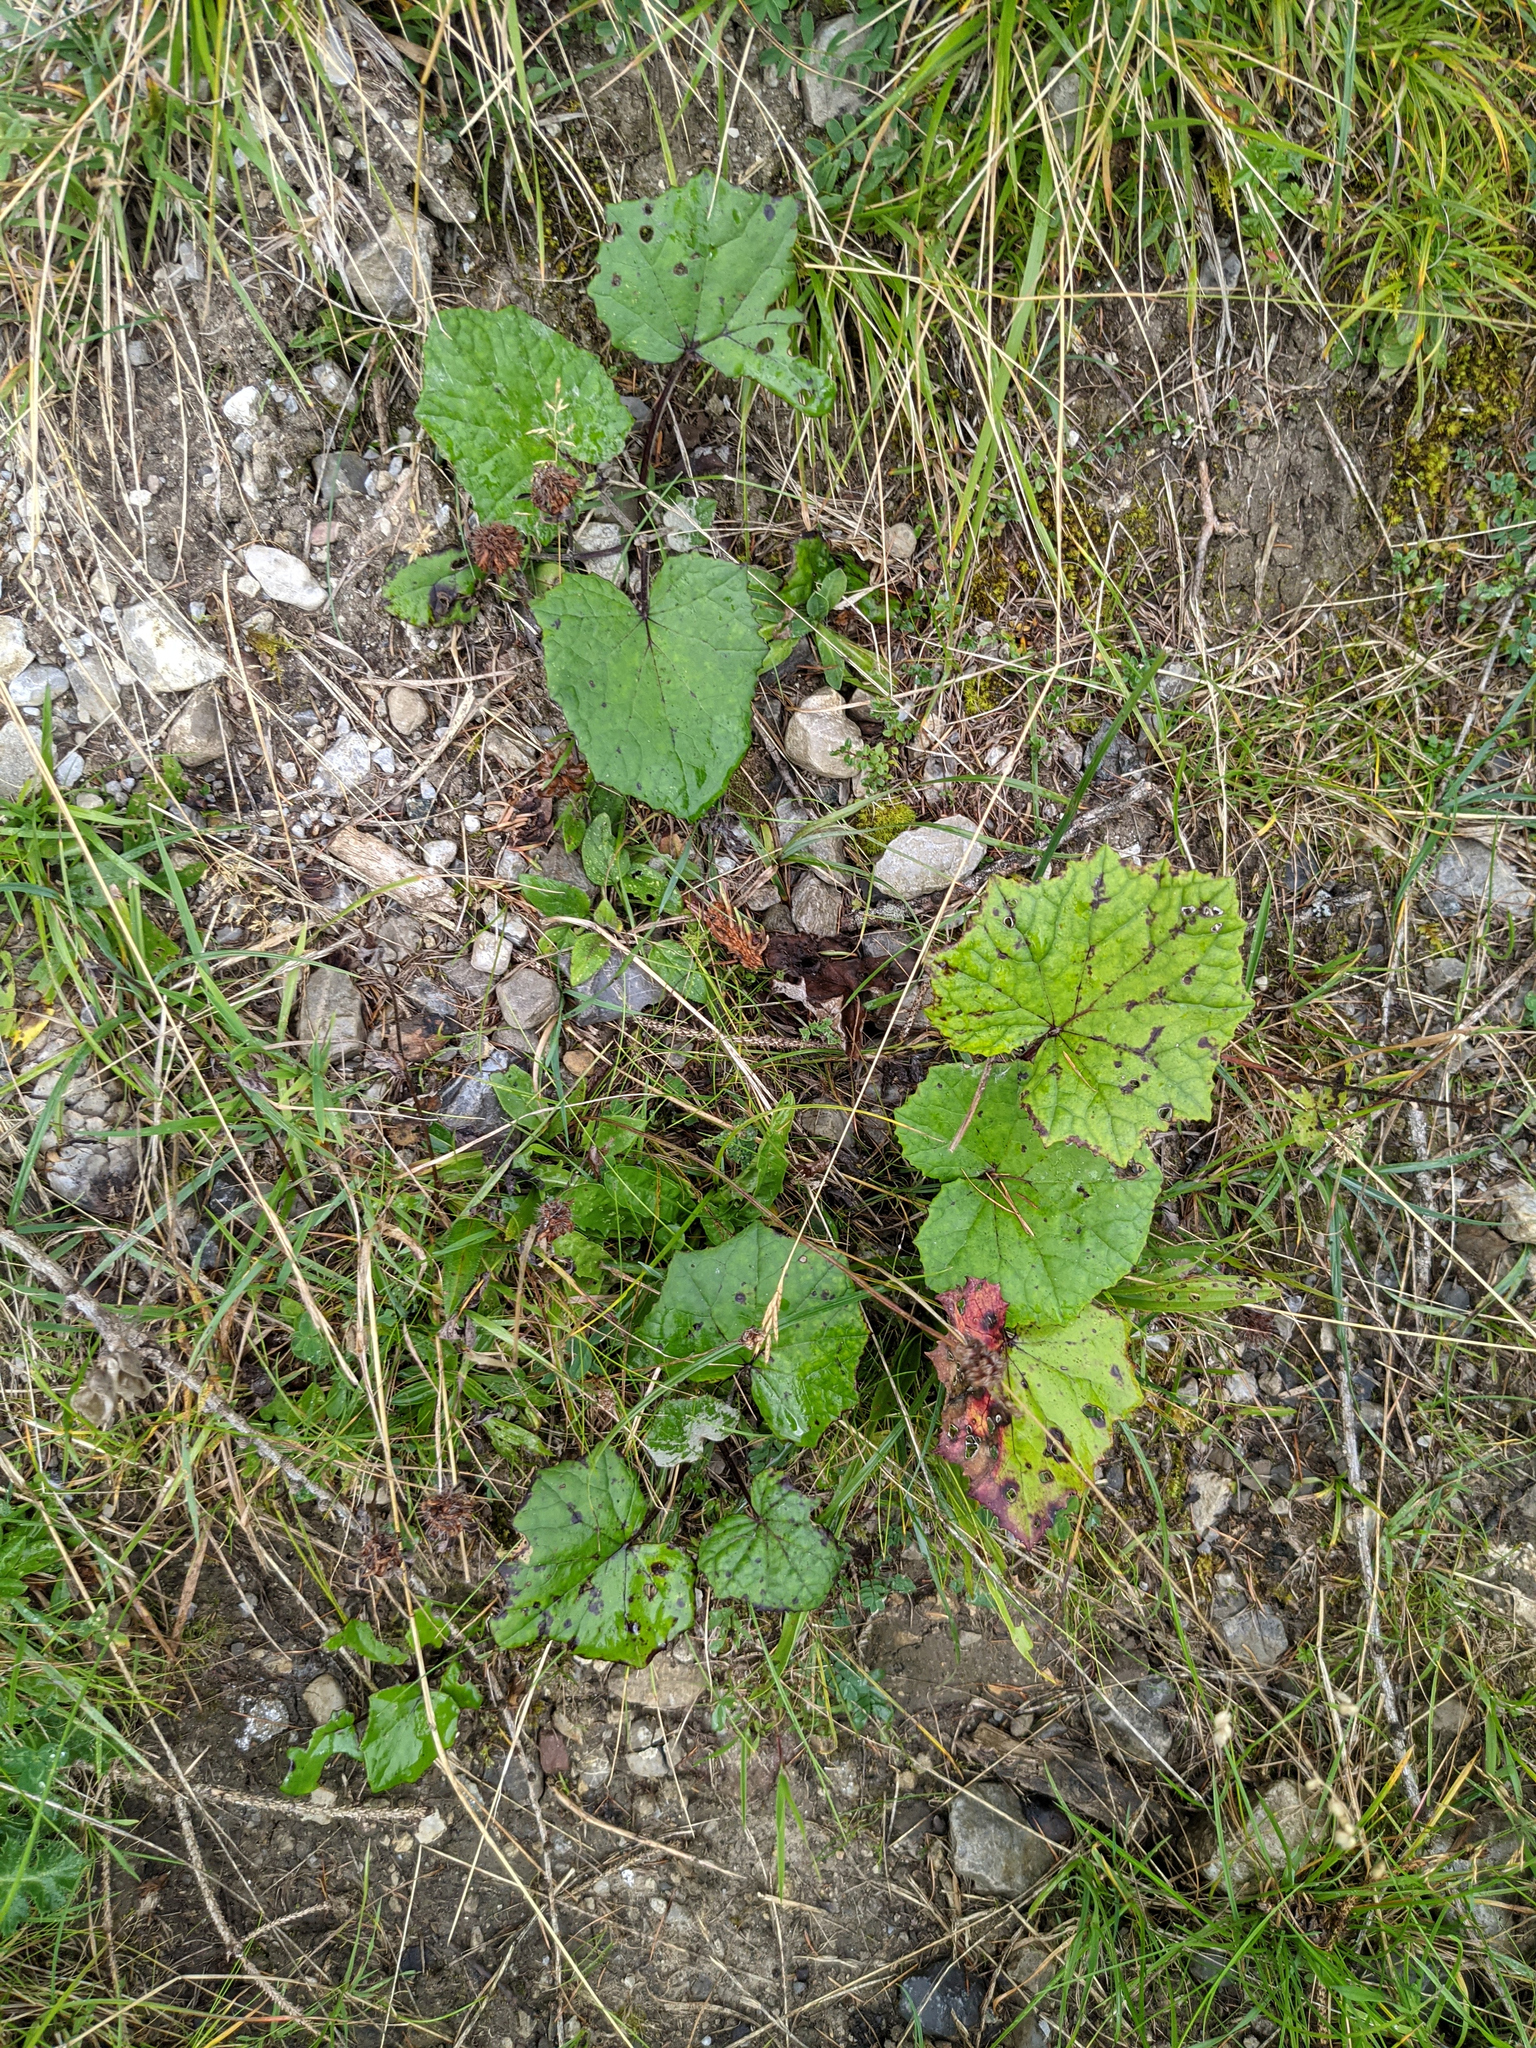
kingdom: Plantae
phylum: Tracheophyta
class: Magnoliopsida
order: Asterales
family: Asteraceae
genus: Tussilago
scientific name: Tussilago farfara
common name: Coltsfoot
